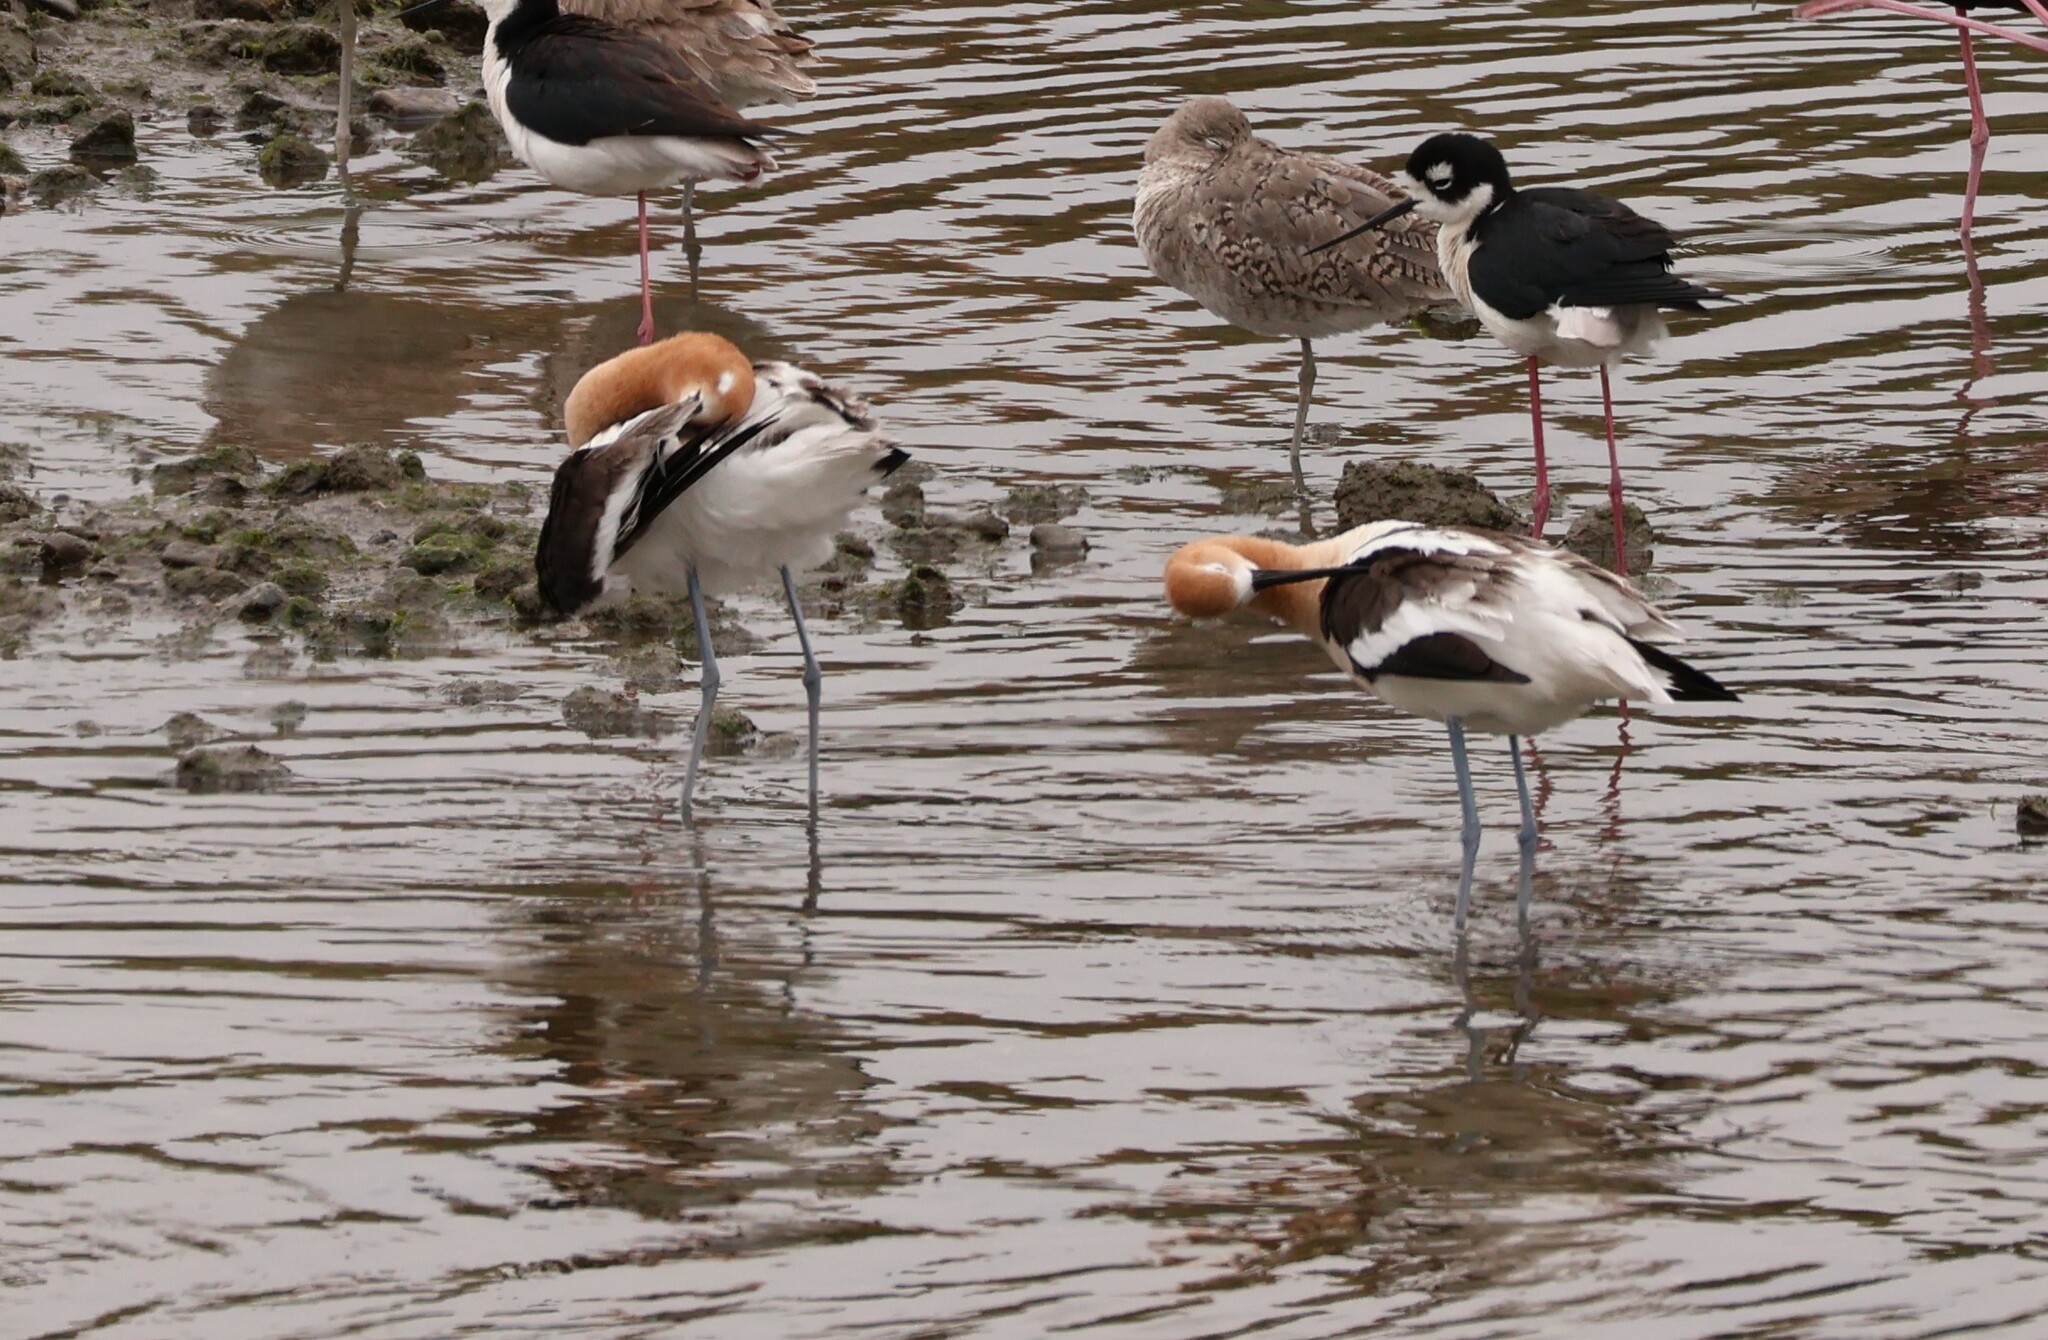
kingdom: Animalia
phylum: Chordata
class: Aves
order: Charadriiformes
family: Recurvirostridae
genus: Recurvirostra
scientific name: Recurvirostra americana
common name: American avocet
